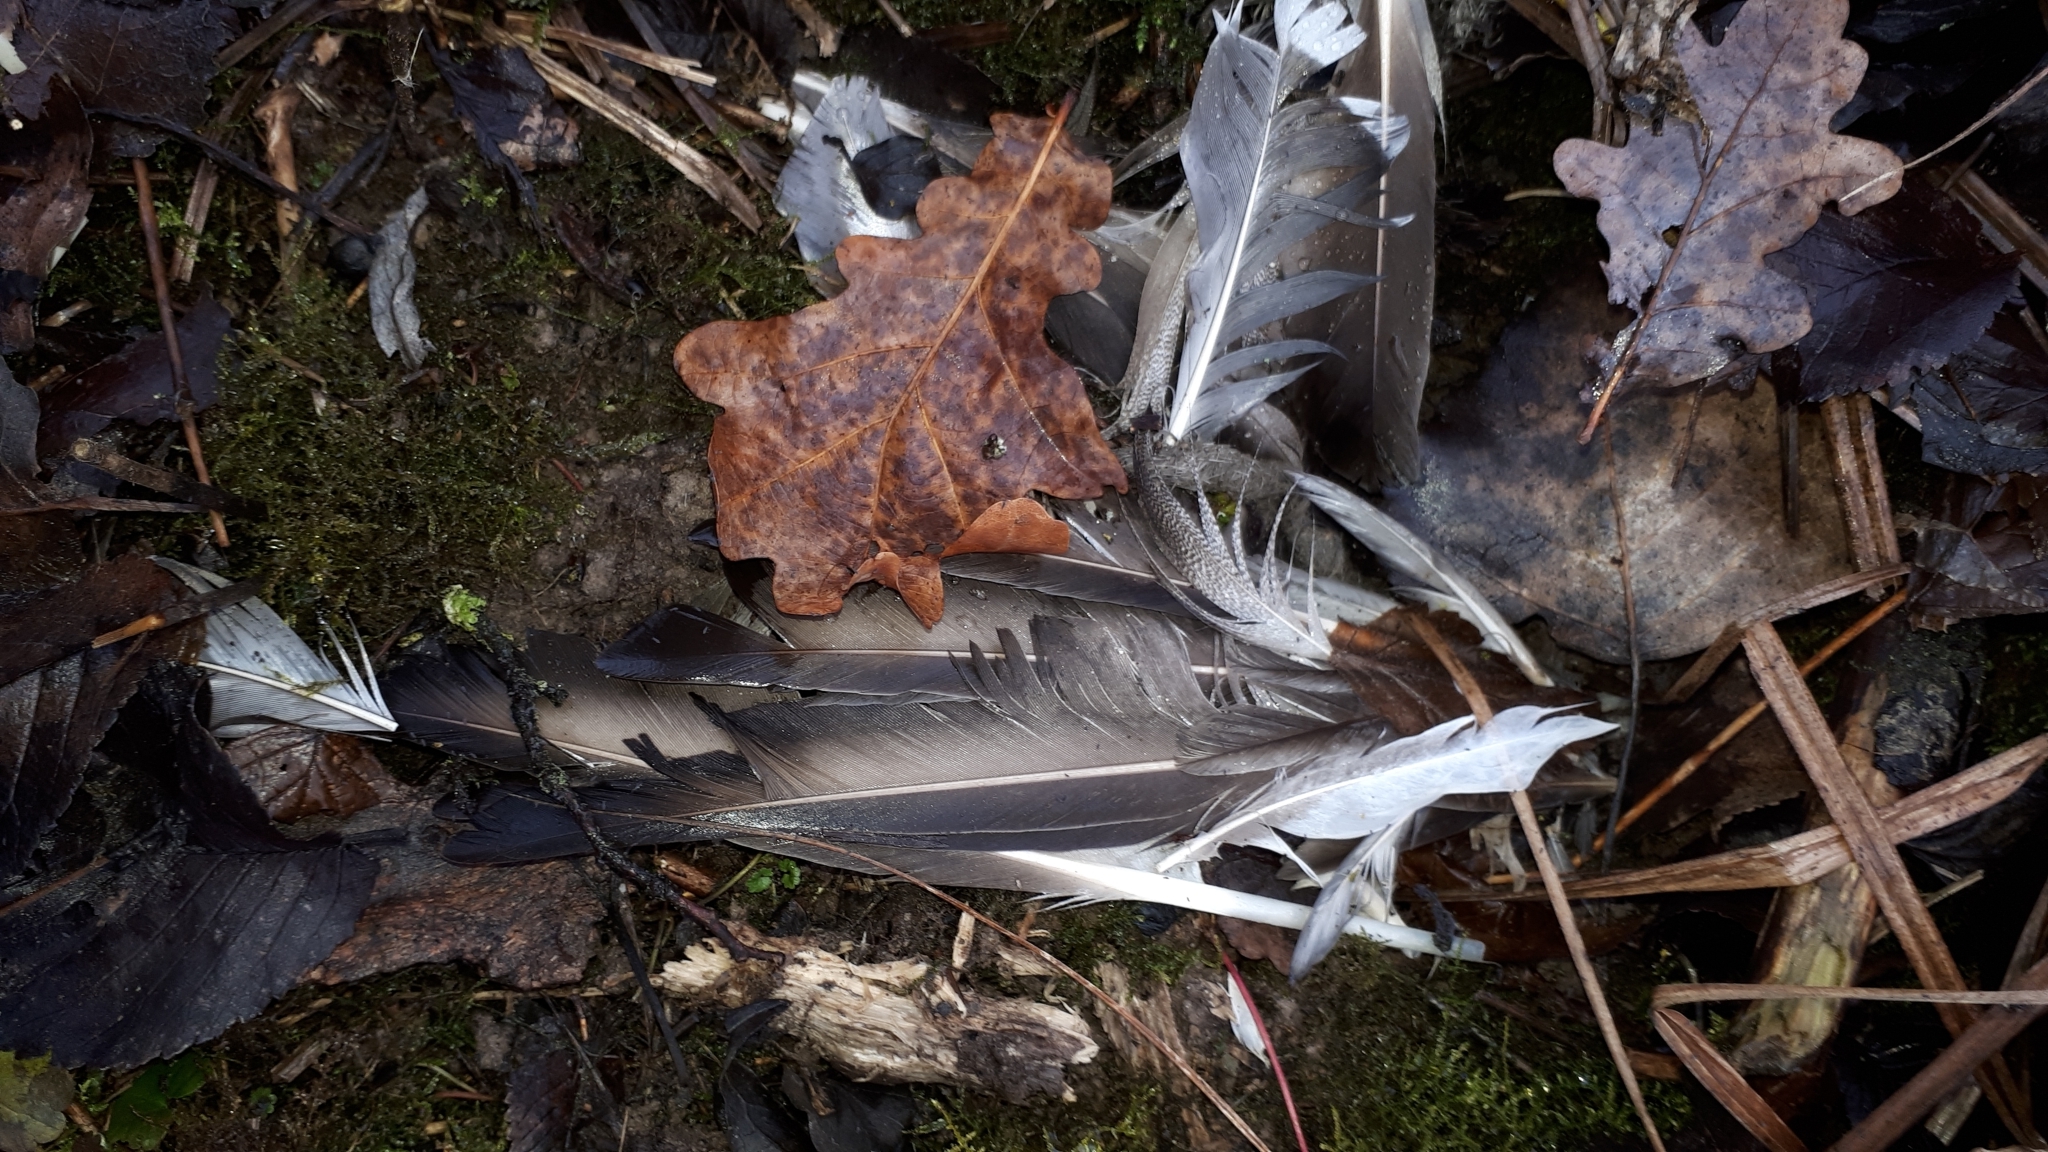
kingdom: Animalia
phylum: Chordata
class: Aves
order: Anseriformes
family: Anatidae
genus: Anas
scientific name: Anas platyrhynchos
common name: Mallard
